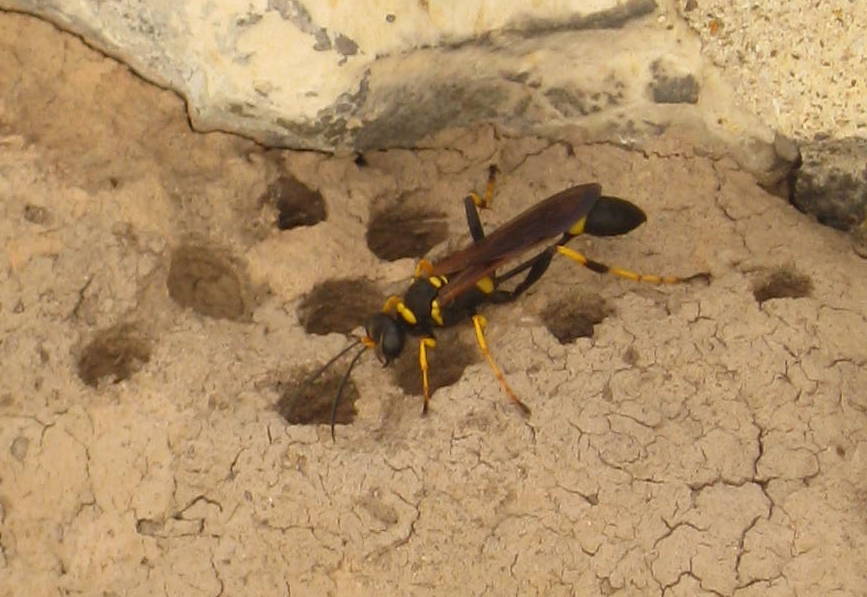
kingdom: Animalia
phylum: Arthropoda
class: Insecta
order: Hymenoptera
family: Sphecidae
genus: Sceliphron
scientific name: Sceliphron caementarium
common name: Mud dauber
